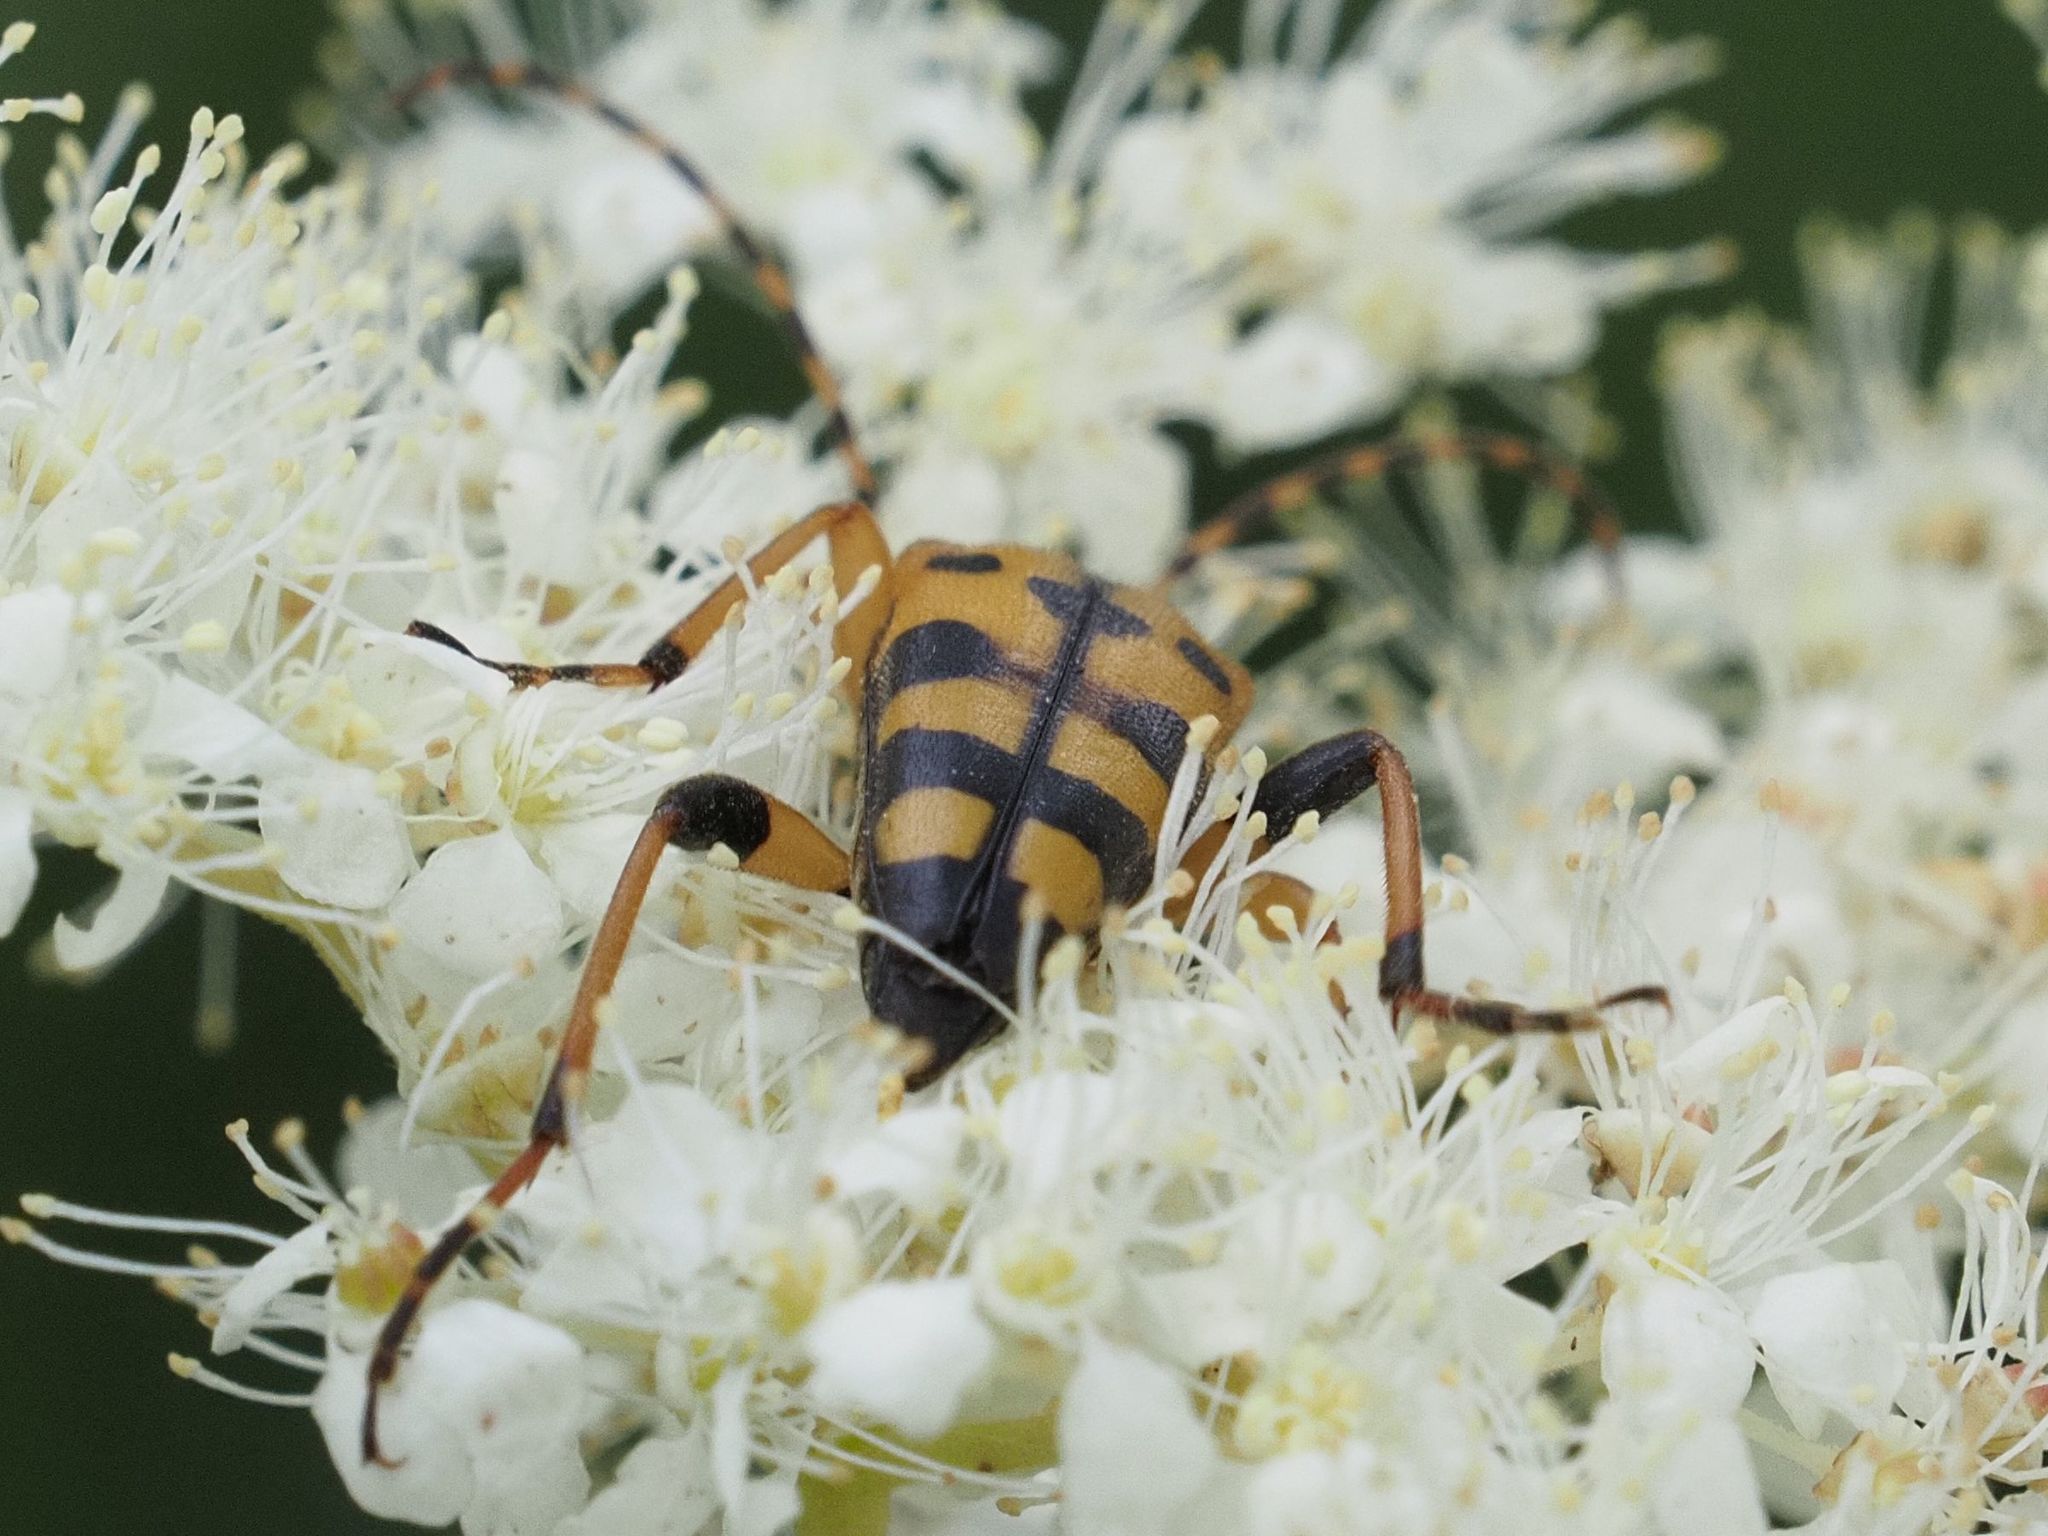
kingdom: Animalia
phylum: Arthropoda
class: Insecta
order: Coleoptera
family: Cerambycidae
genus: Rutpela
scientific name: Rutpela maculata
